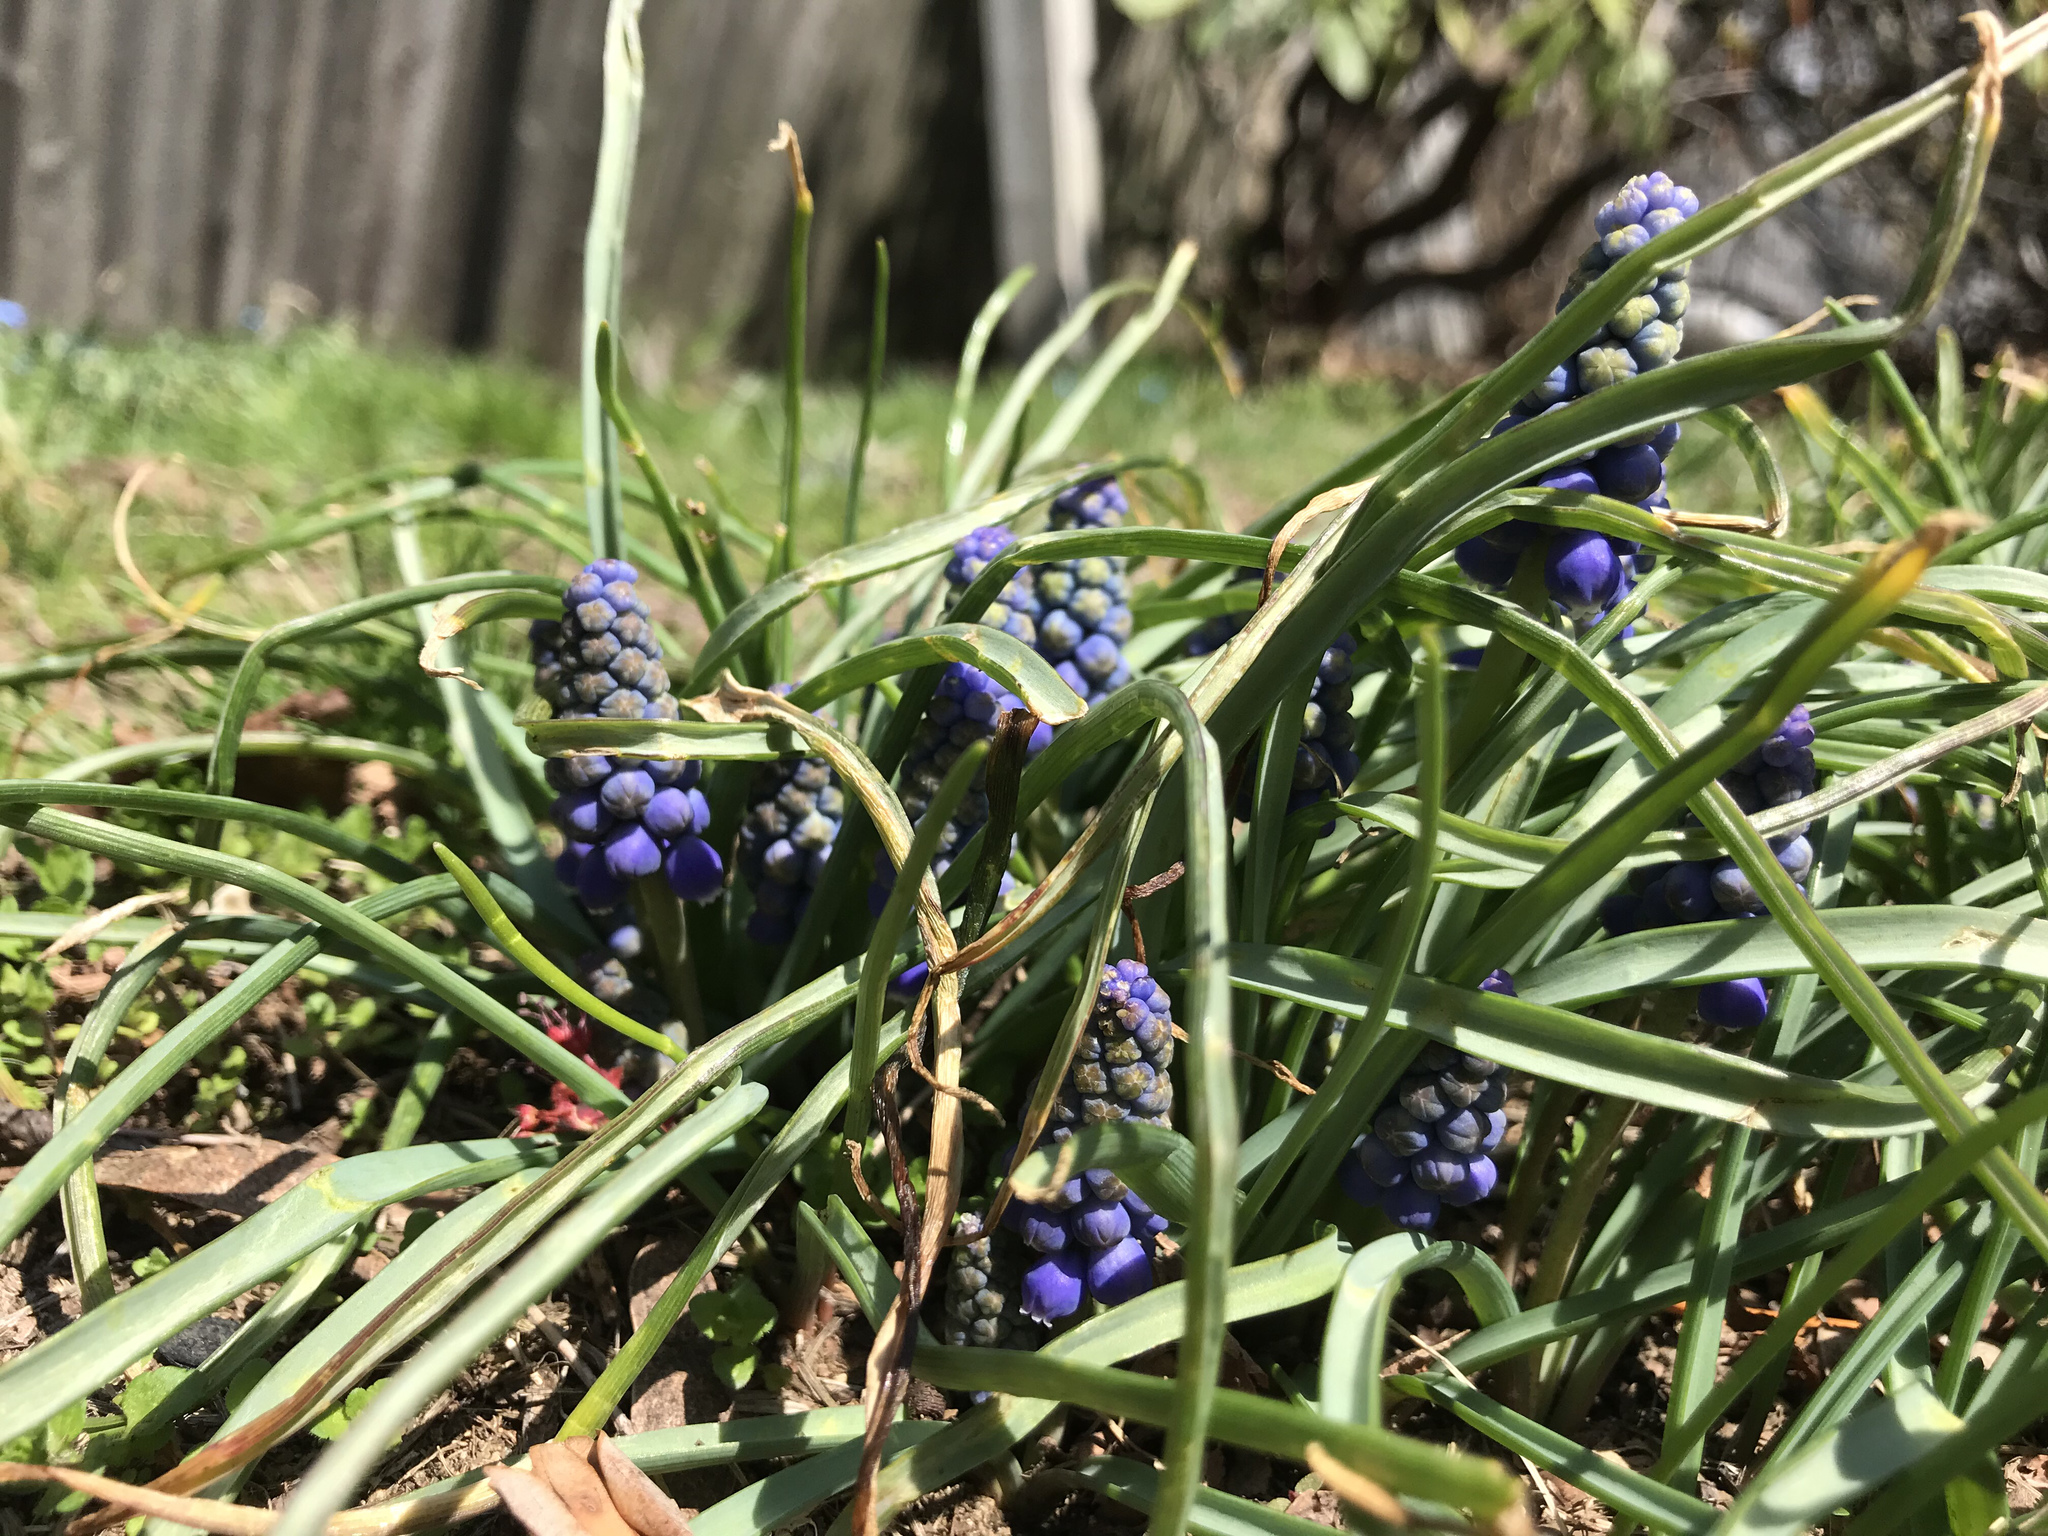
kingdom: Plantae
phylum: Tracheophyta
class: Liliopsida
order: Asparagales
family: Asparagaceae
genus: Muscari
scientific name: Muscari neglectum
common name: Grape-hyacinth
